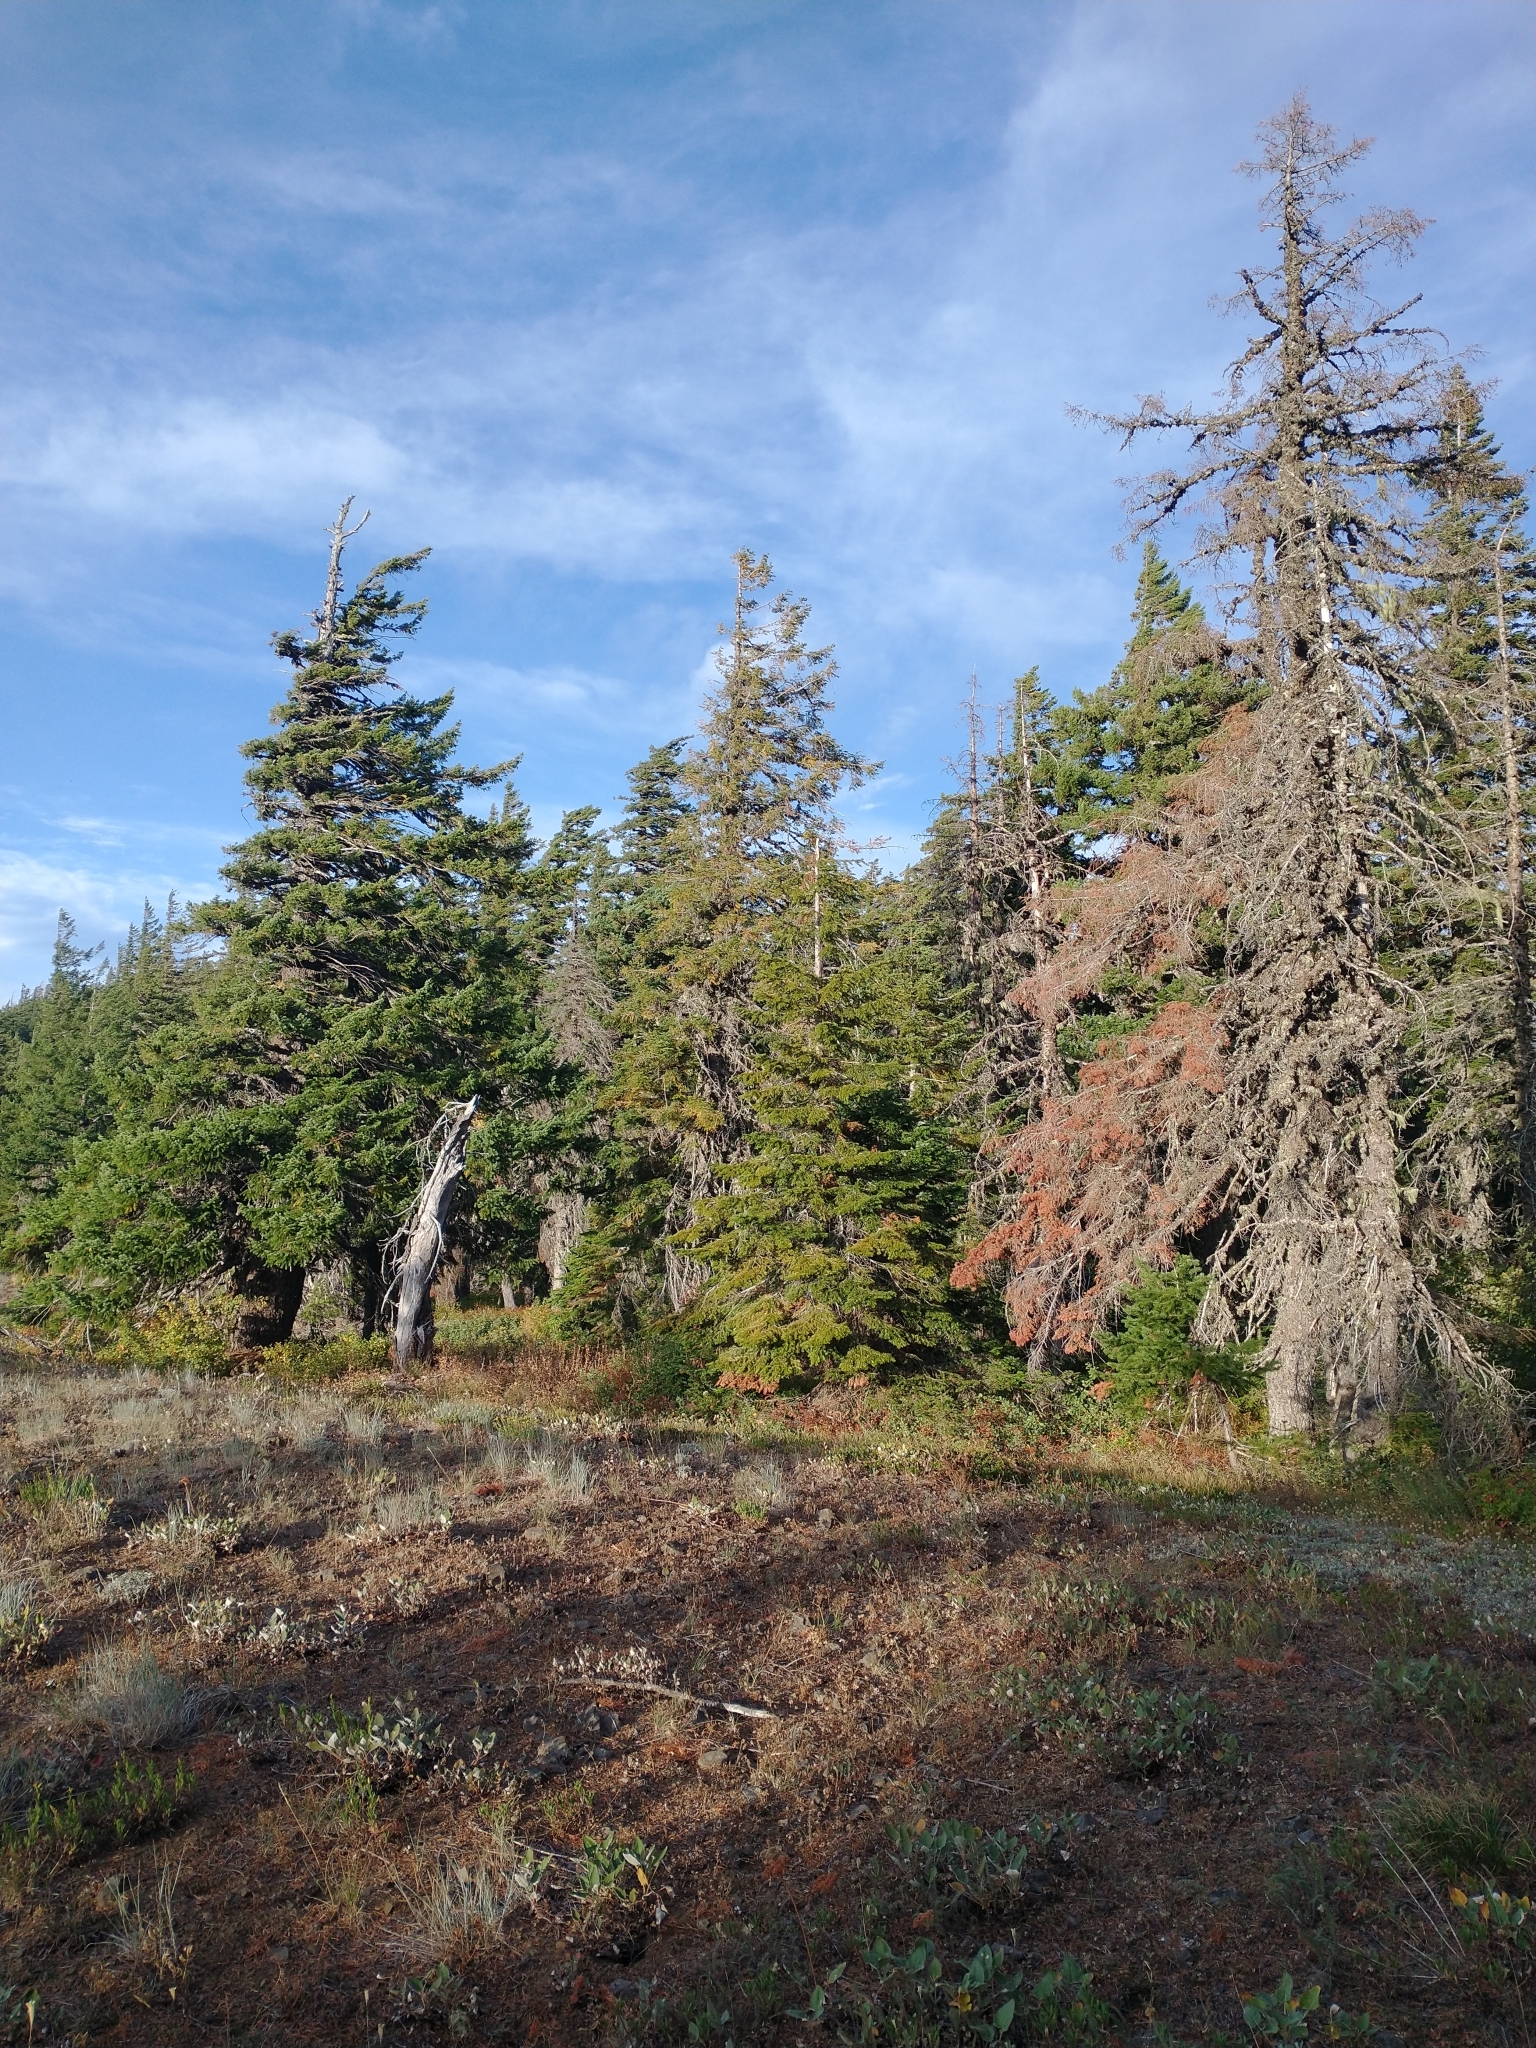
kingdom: Plantae
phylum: Tracheophyta
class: Pinopsida
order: Pinales
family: Pinaceae
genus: Pseudotsuga
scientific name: Pseudotsuga menziesii
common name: Douglas fir
